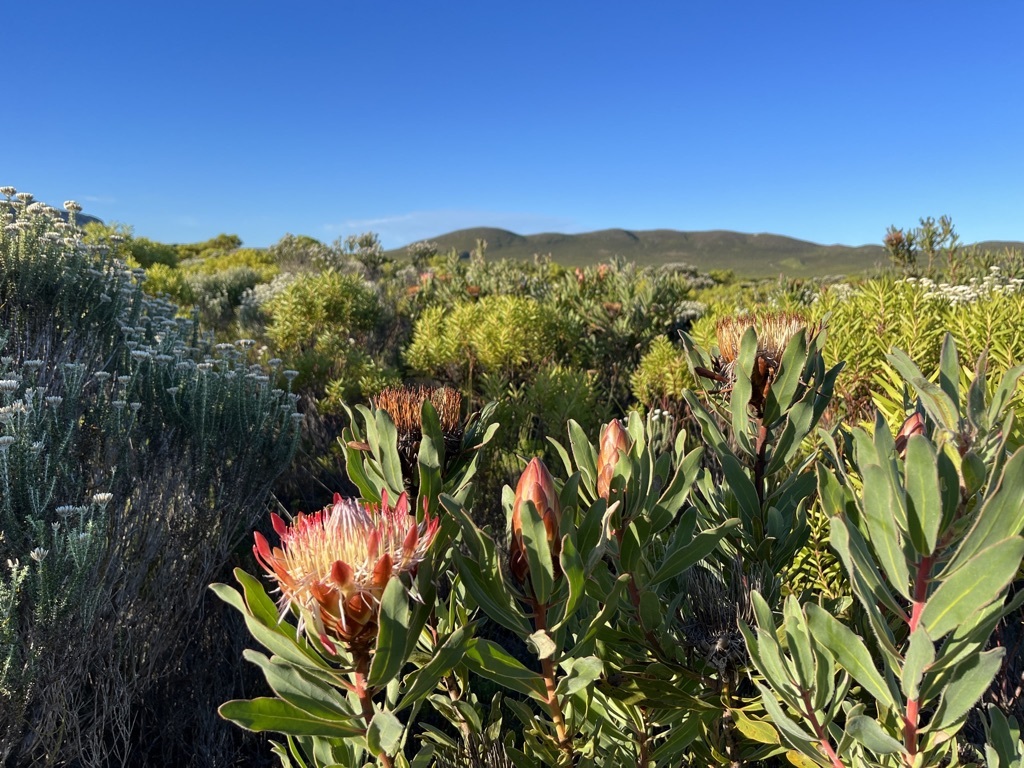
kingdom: Plantae
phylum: Tracheophyta
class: Magnoliopsida
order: Proteales
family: Proteaceae
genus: Protea
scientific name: Protea susannae
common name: Foetid-leaf sugarbush
